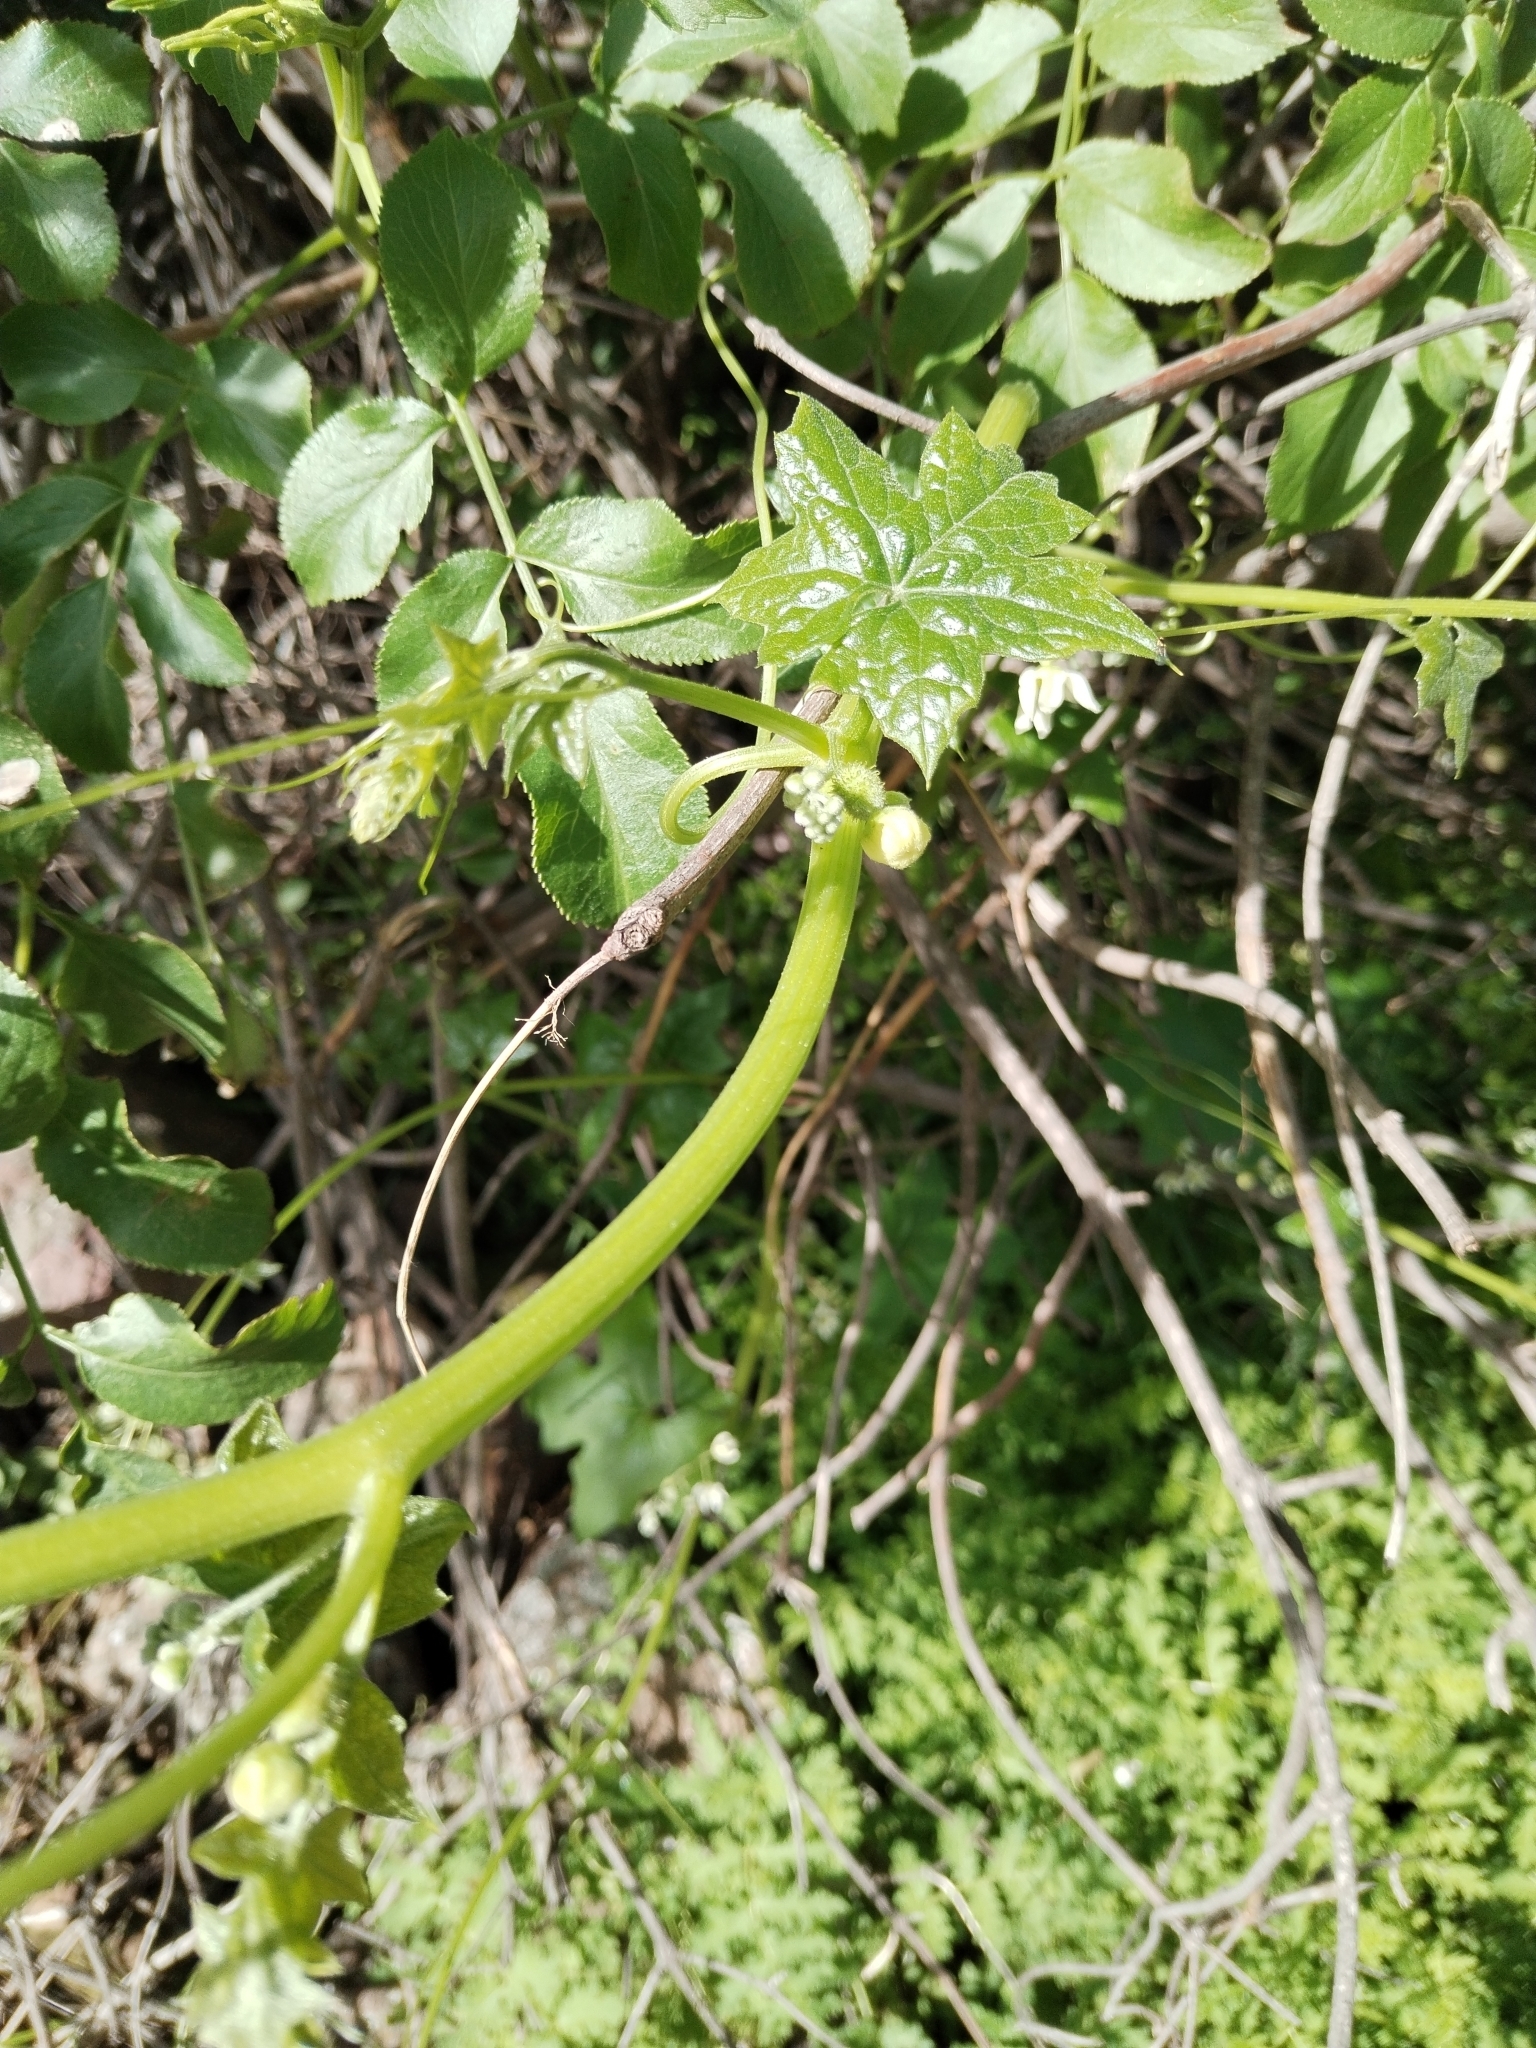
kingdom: Plantae
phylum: Tracheophyta
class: Magnoliopsida
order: Cucurbitales
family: Cucurbitaceae
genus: Marah
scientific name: Marah macrocarpa
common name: Cucamonga manroot
